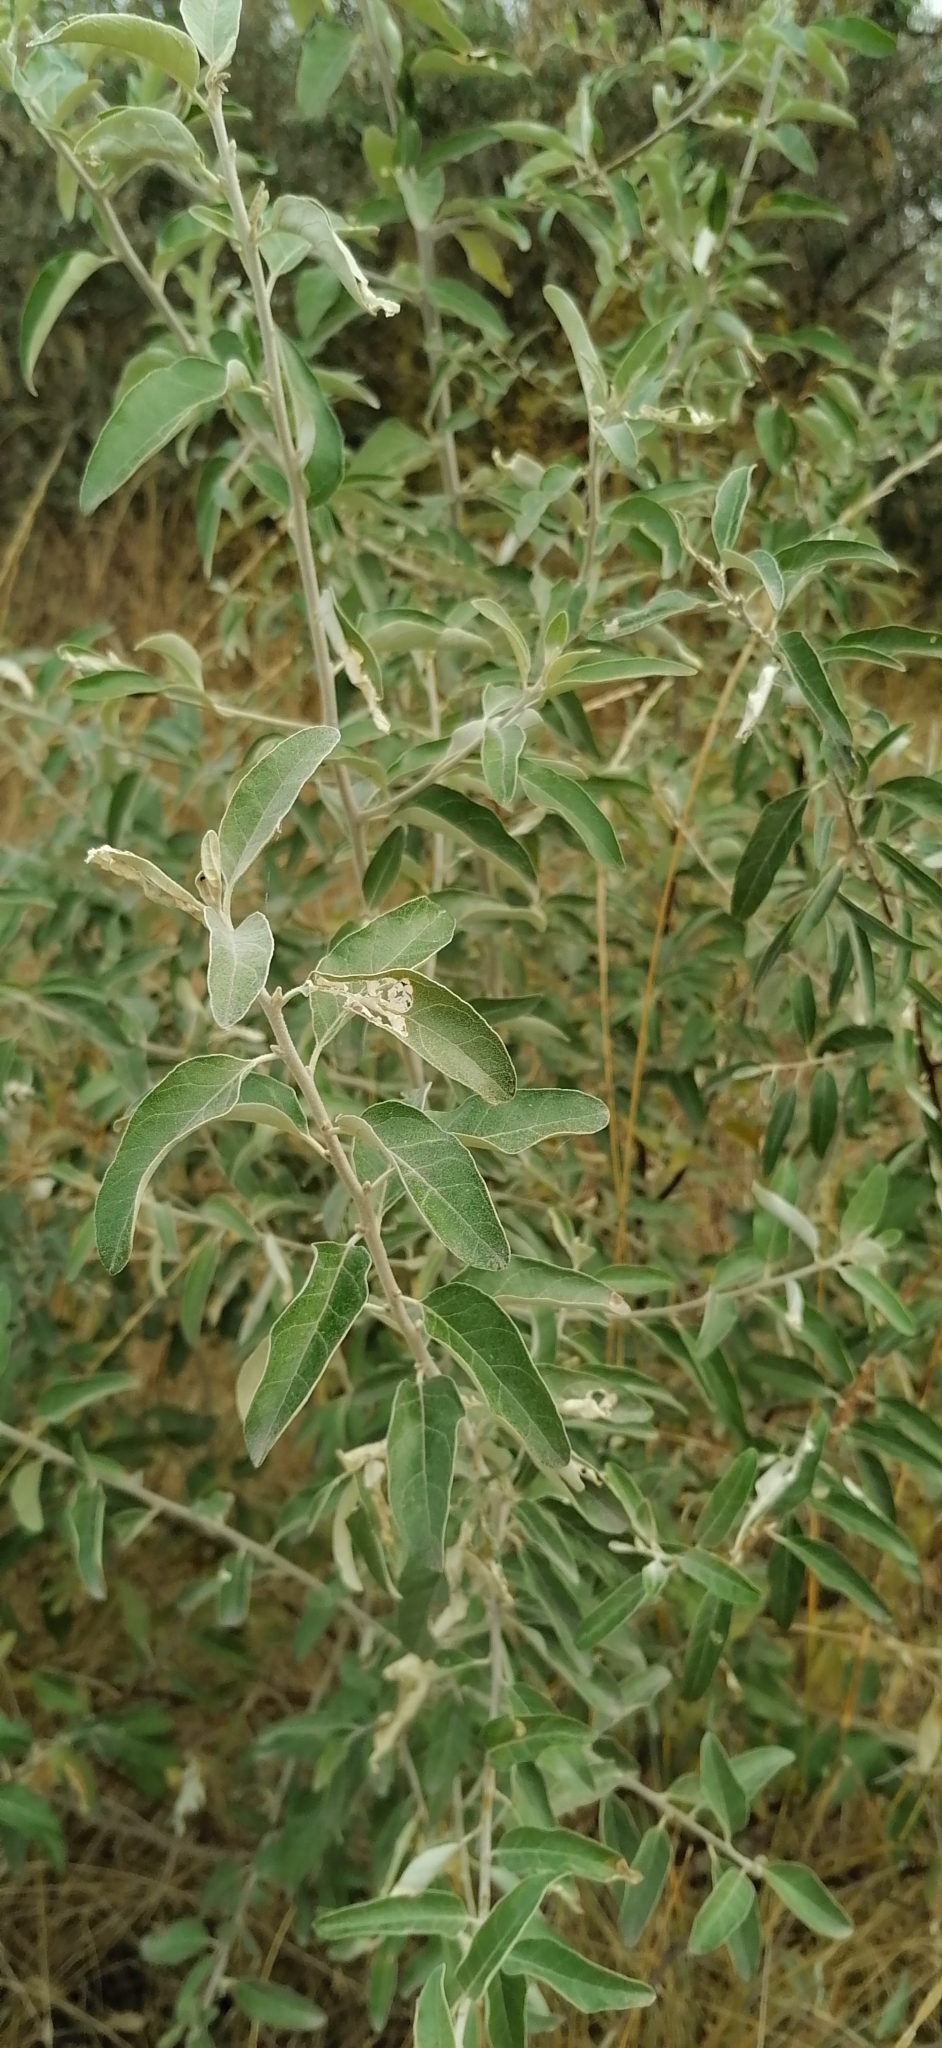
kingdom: Plantae
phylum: Tracheophyta
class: Magnoliopsida
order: Rosales
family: Elaeagnaceae
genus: Elaeagnus
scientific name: Elaeagnus angustifolia
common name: Russian olive
